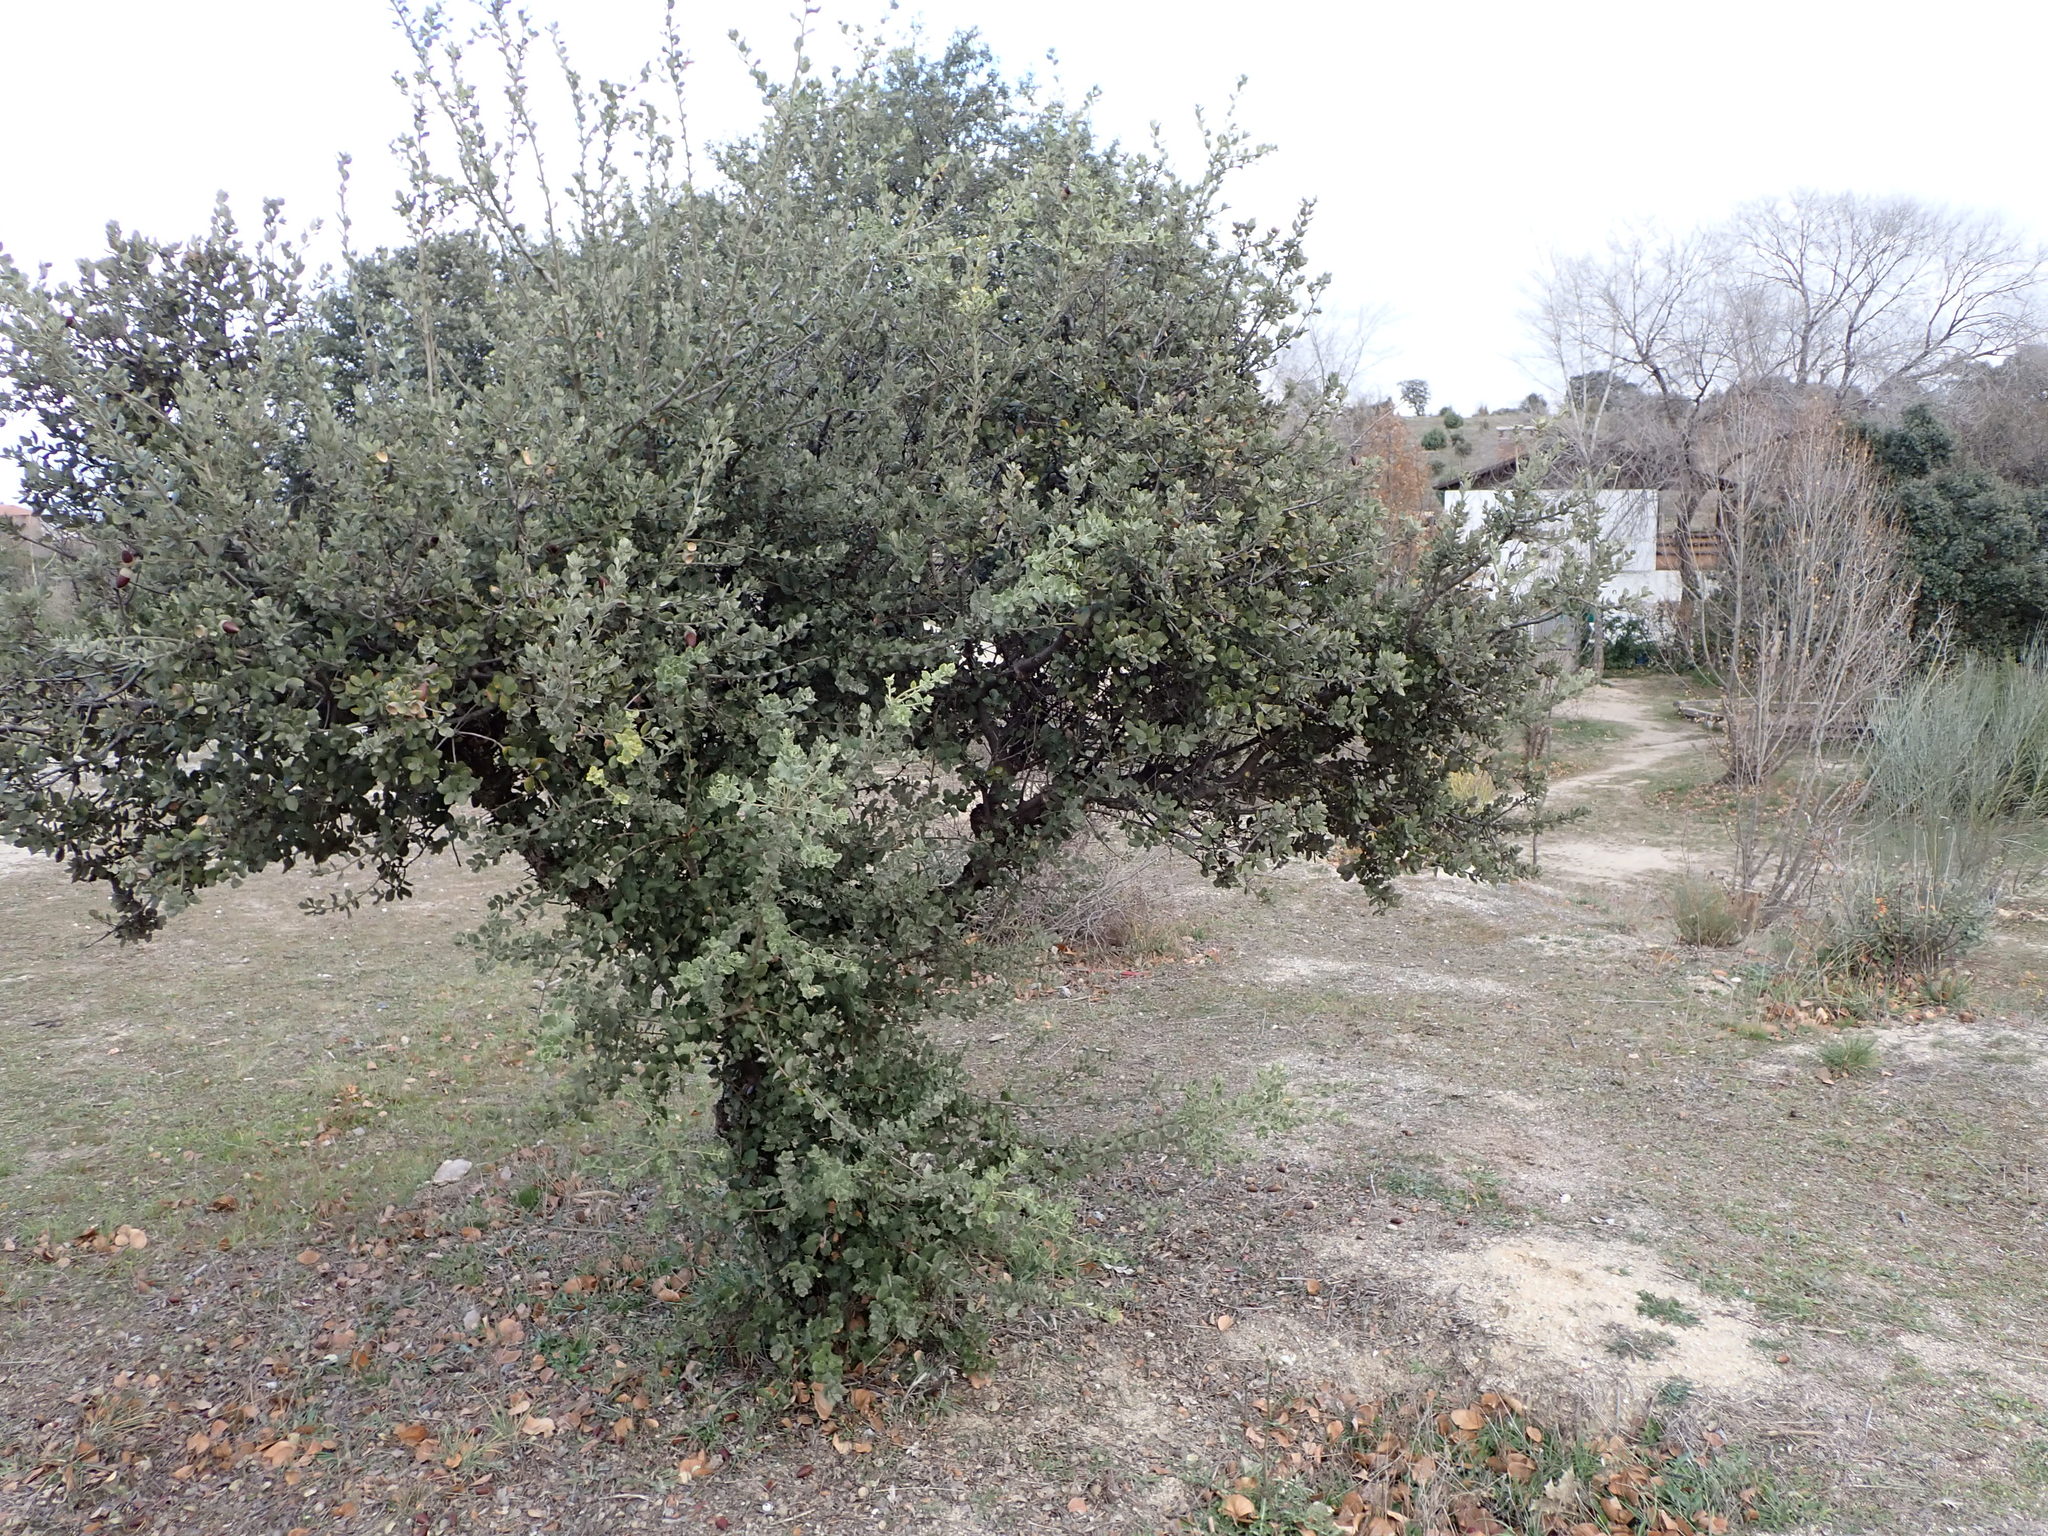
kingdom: Plantae
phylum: Tracheophyta
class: Magnoliopsida
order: Fagales
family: Fagaceae
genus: Quercus
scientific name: Quercus rotundifolia
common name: Holm oak
